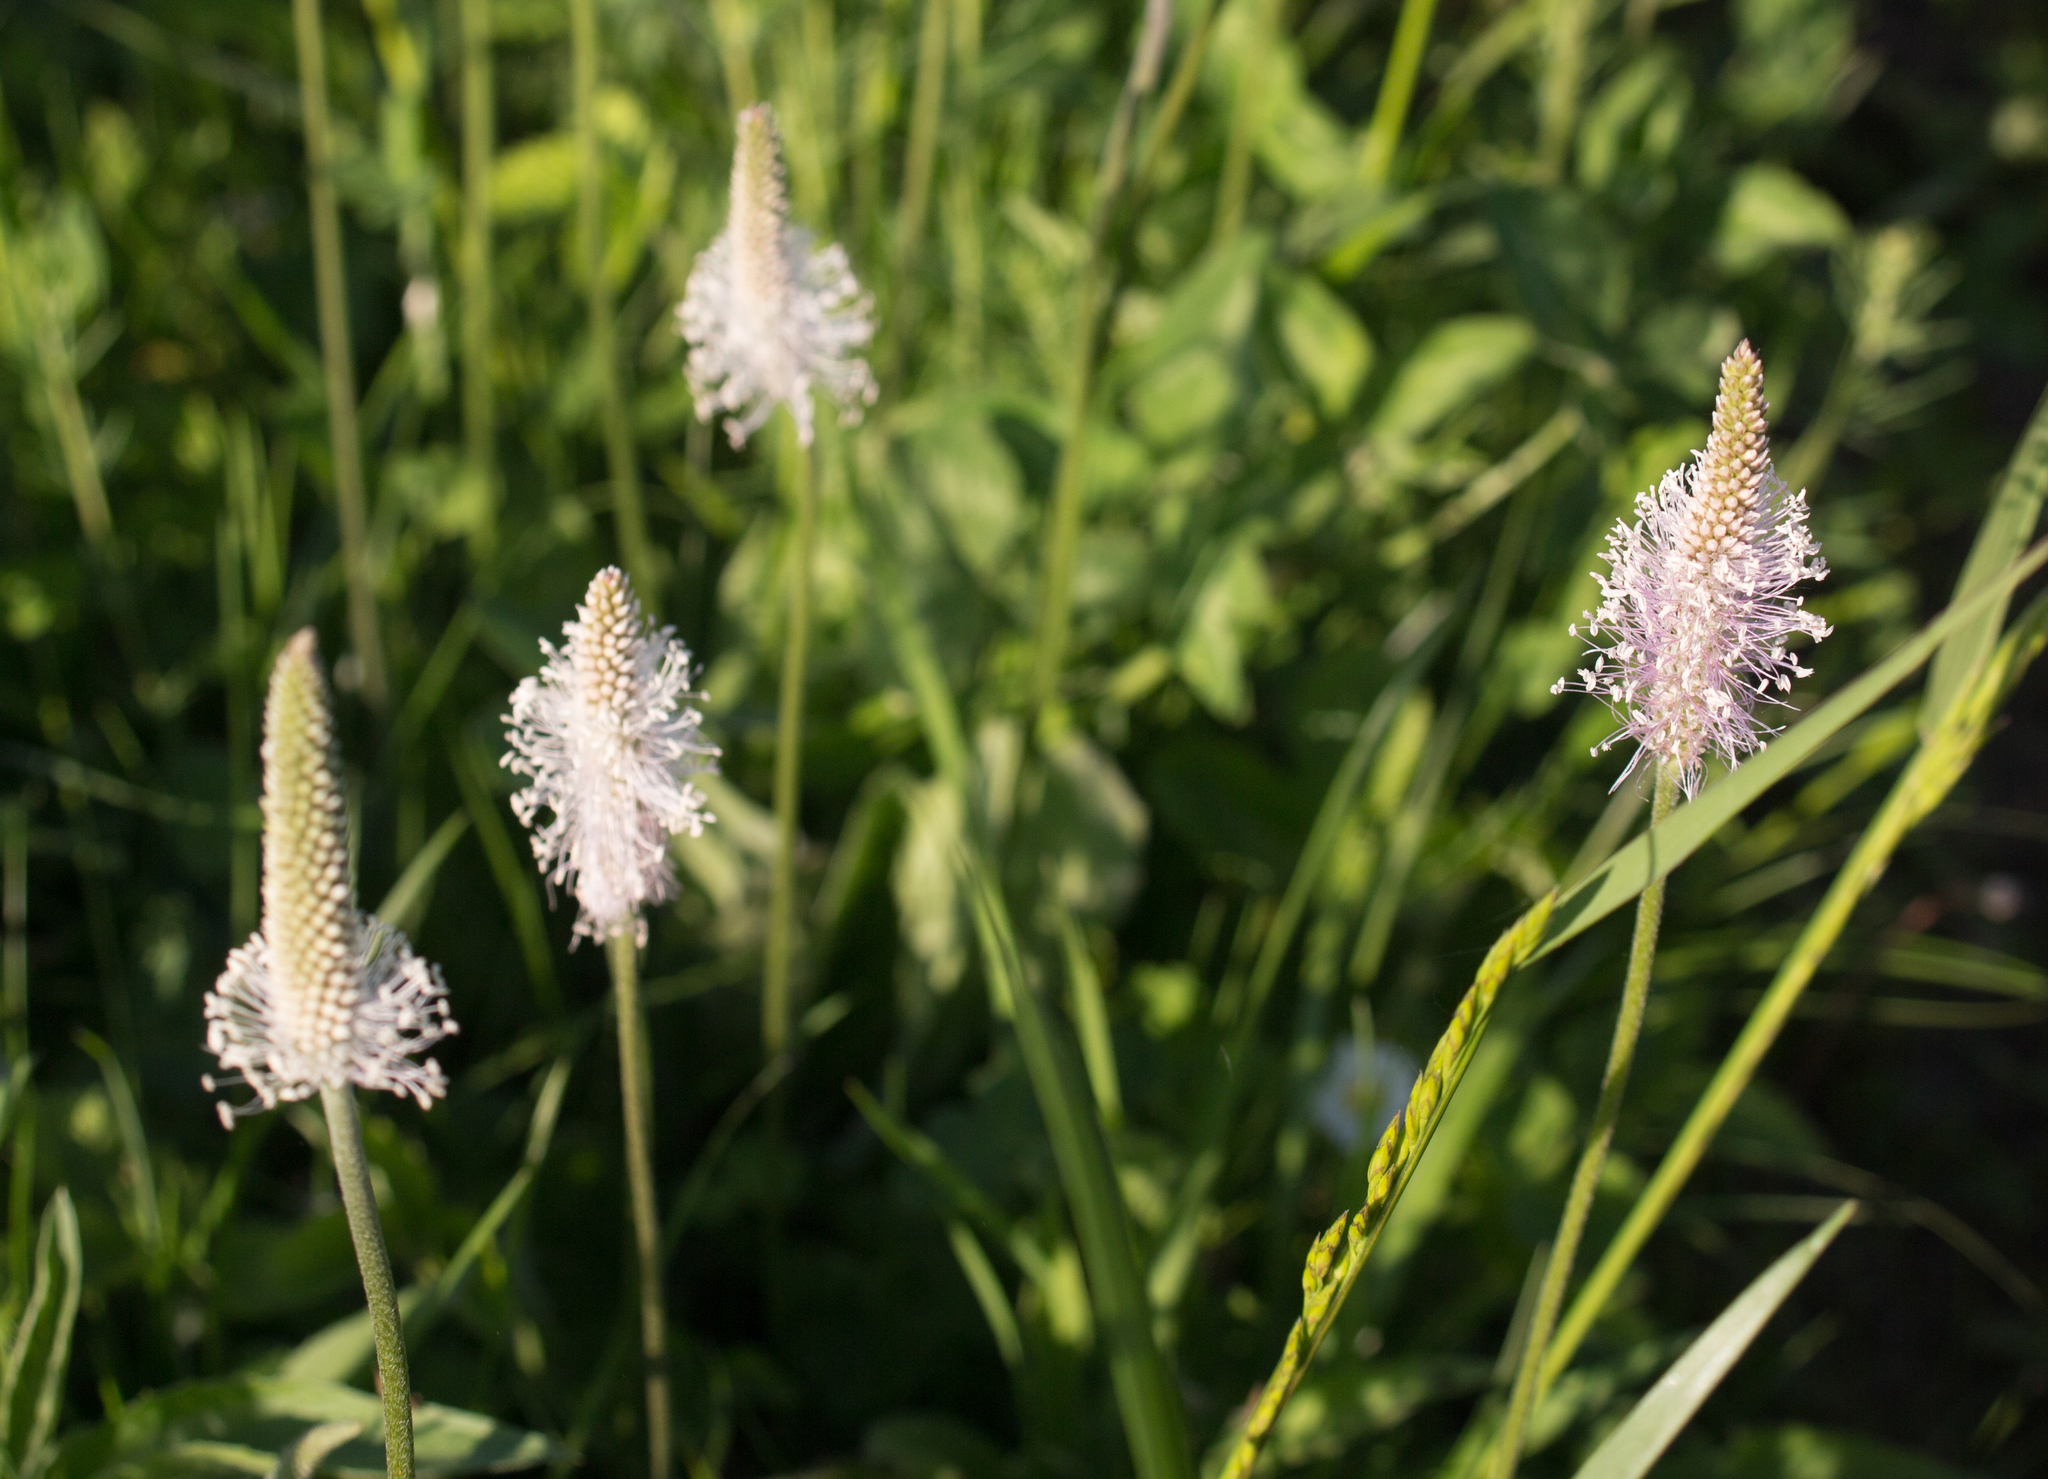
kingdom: Plantae
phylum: Tracheophyta
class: Magnoliopsida
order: Lamiales
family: Plantaginaceae
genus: Plantago
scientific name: Plantago media
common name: Hoary plantain
